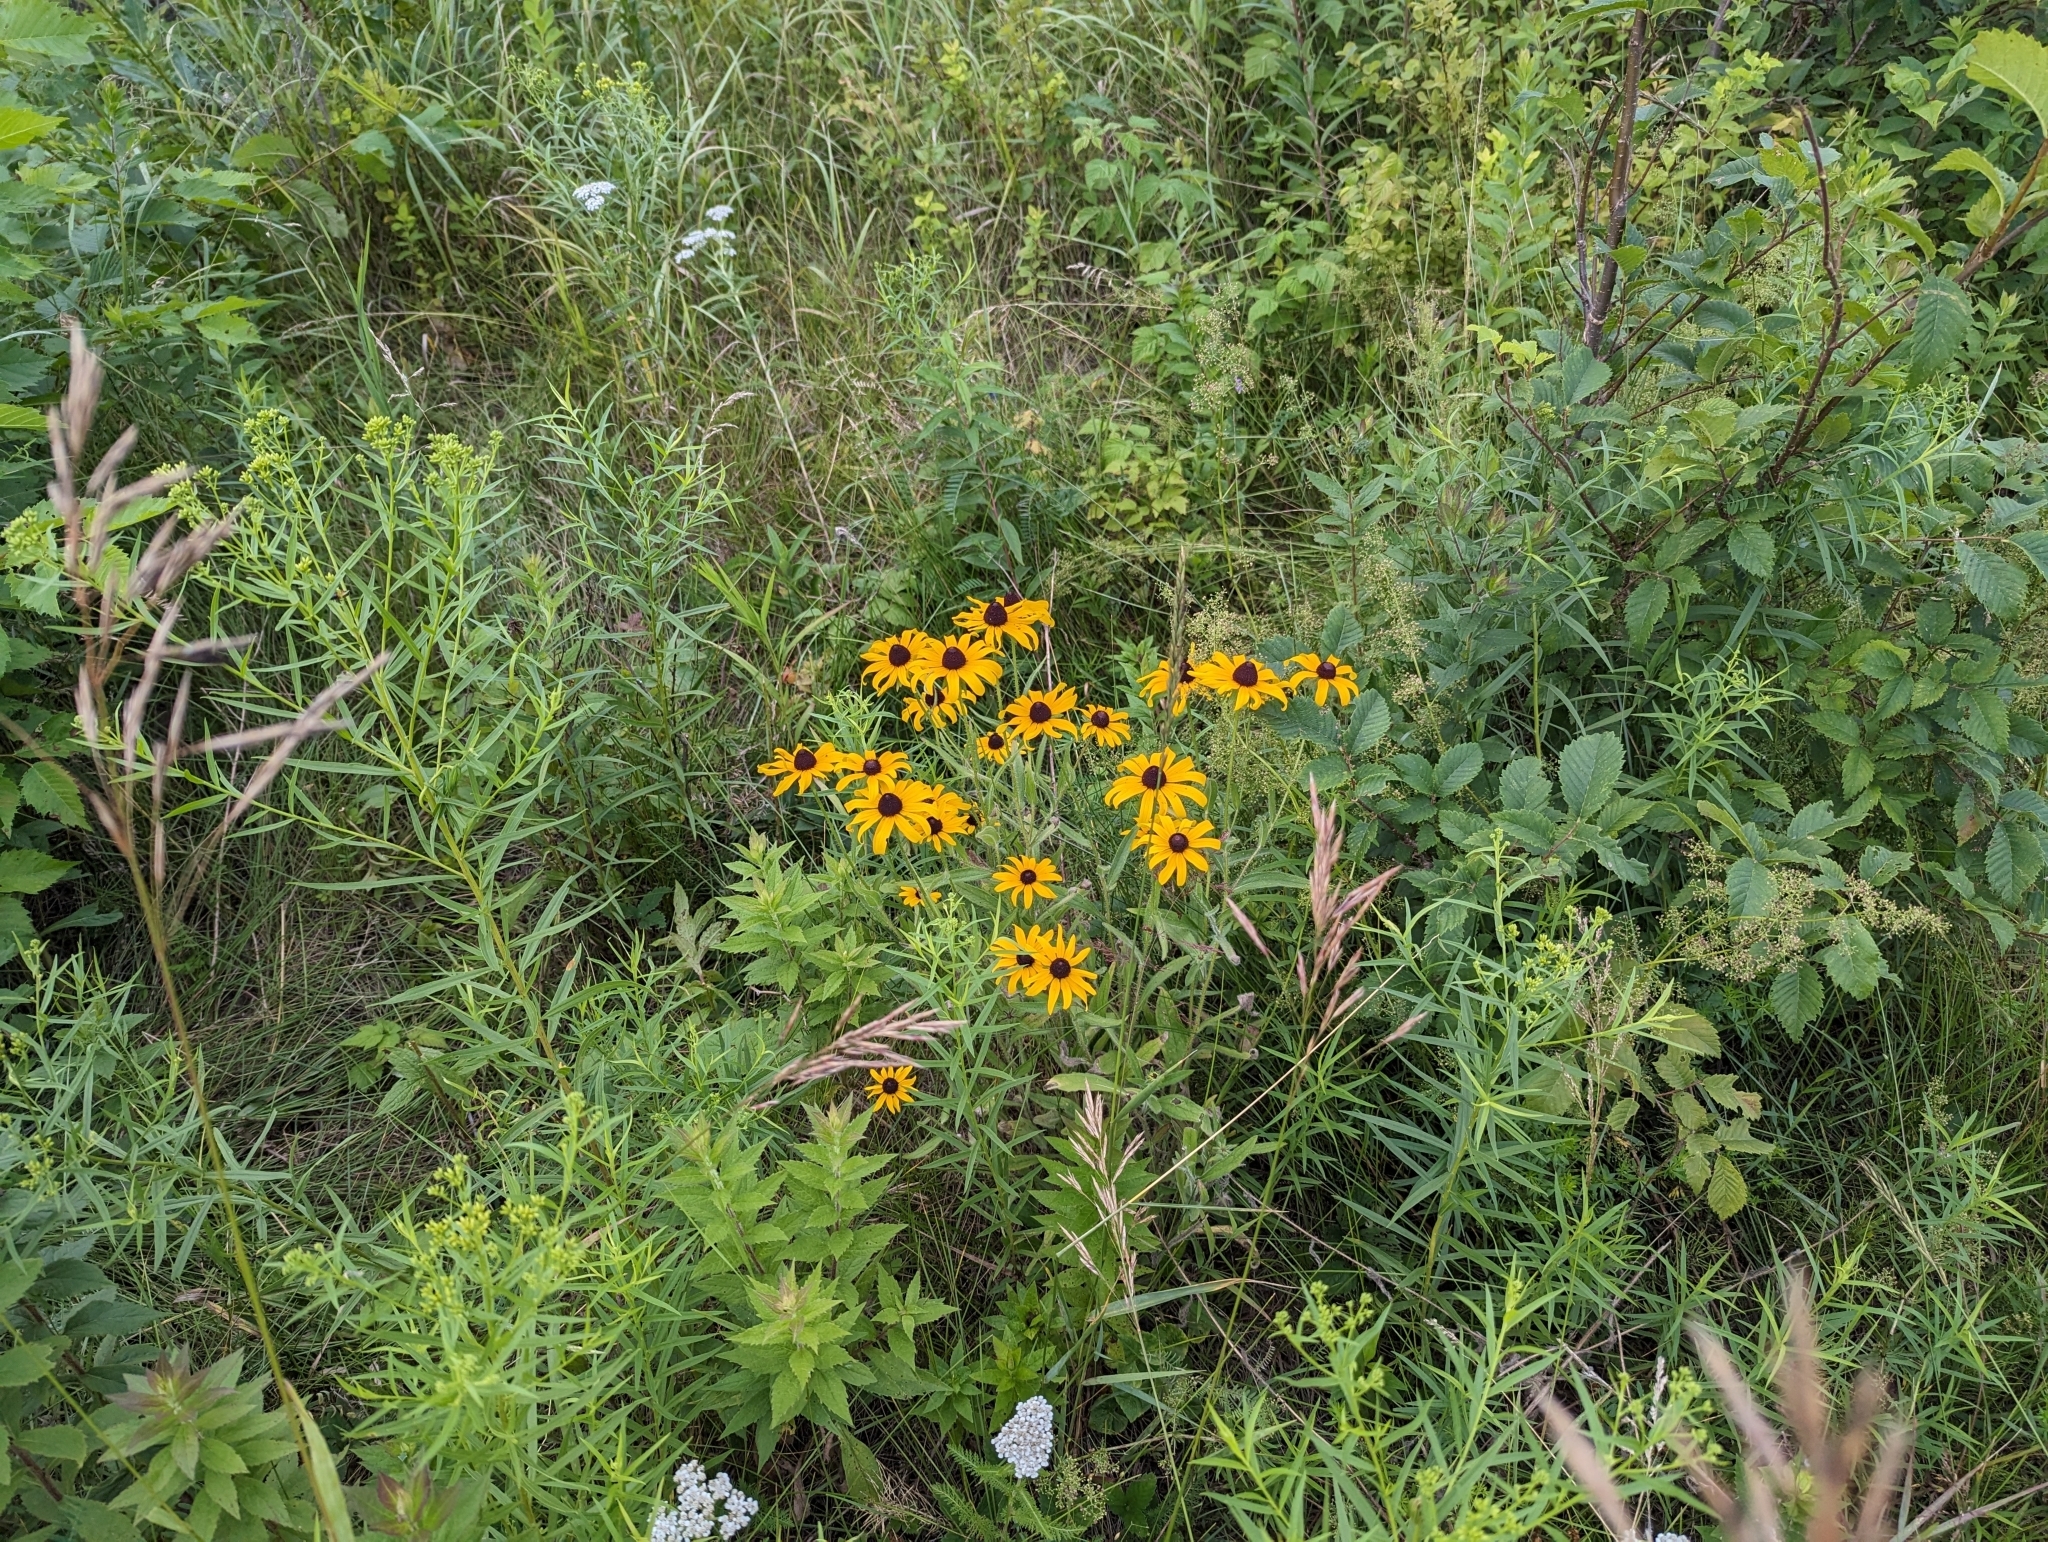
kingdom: Plantae
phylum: Tracheophyta
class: Magnoliopsida
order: Asterales
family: Asteraceae
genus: Rudbeckia
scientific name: Rudbeckia hirta
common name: Black-eyed-susan
